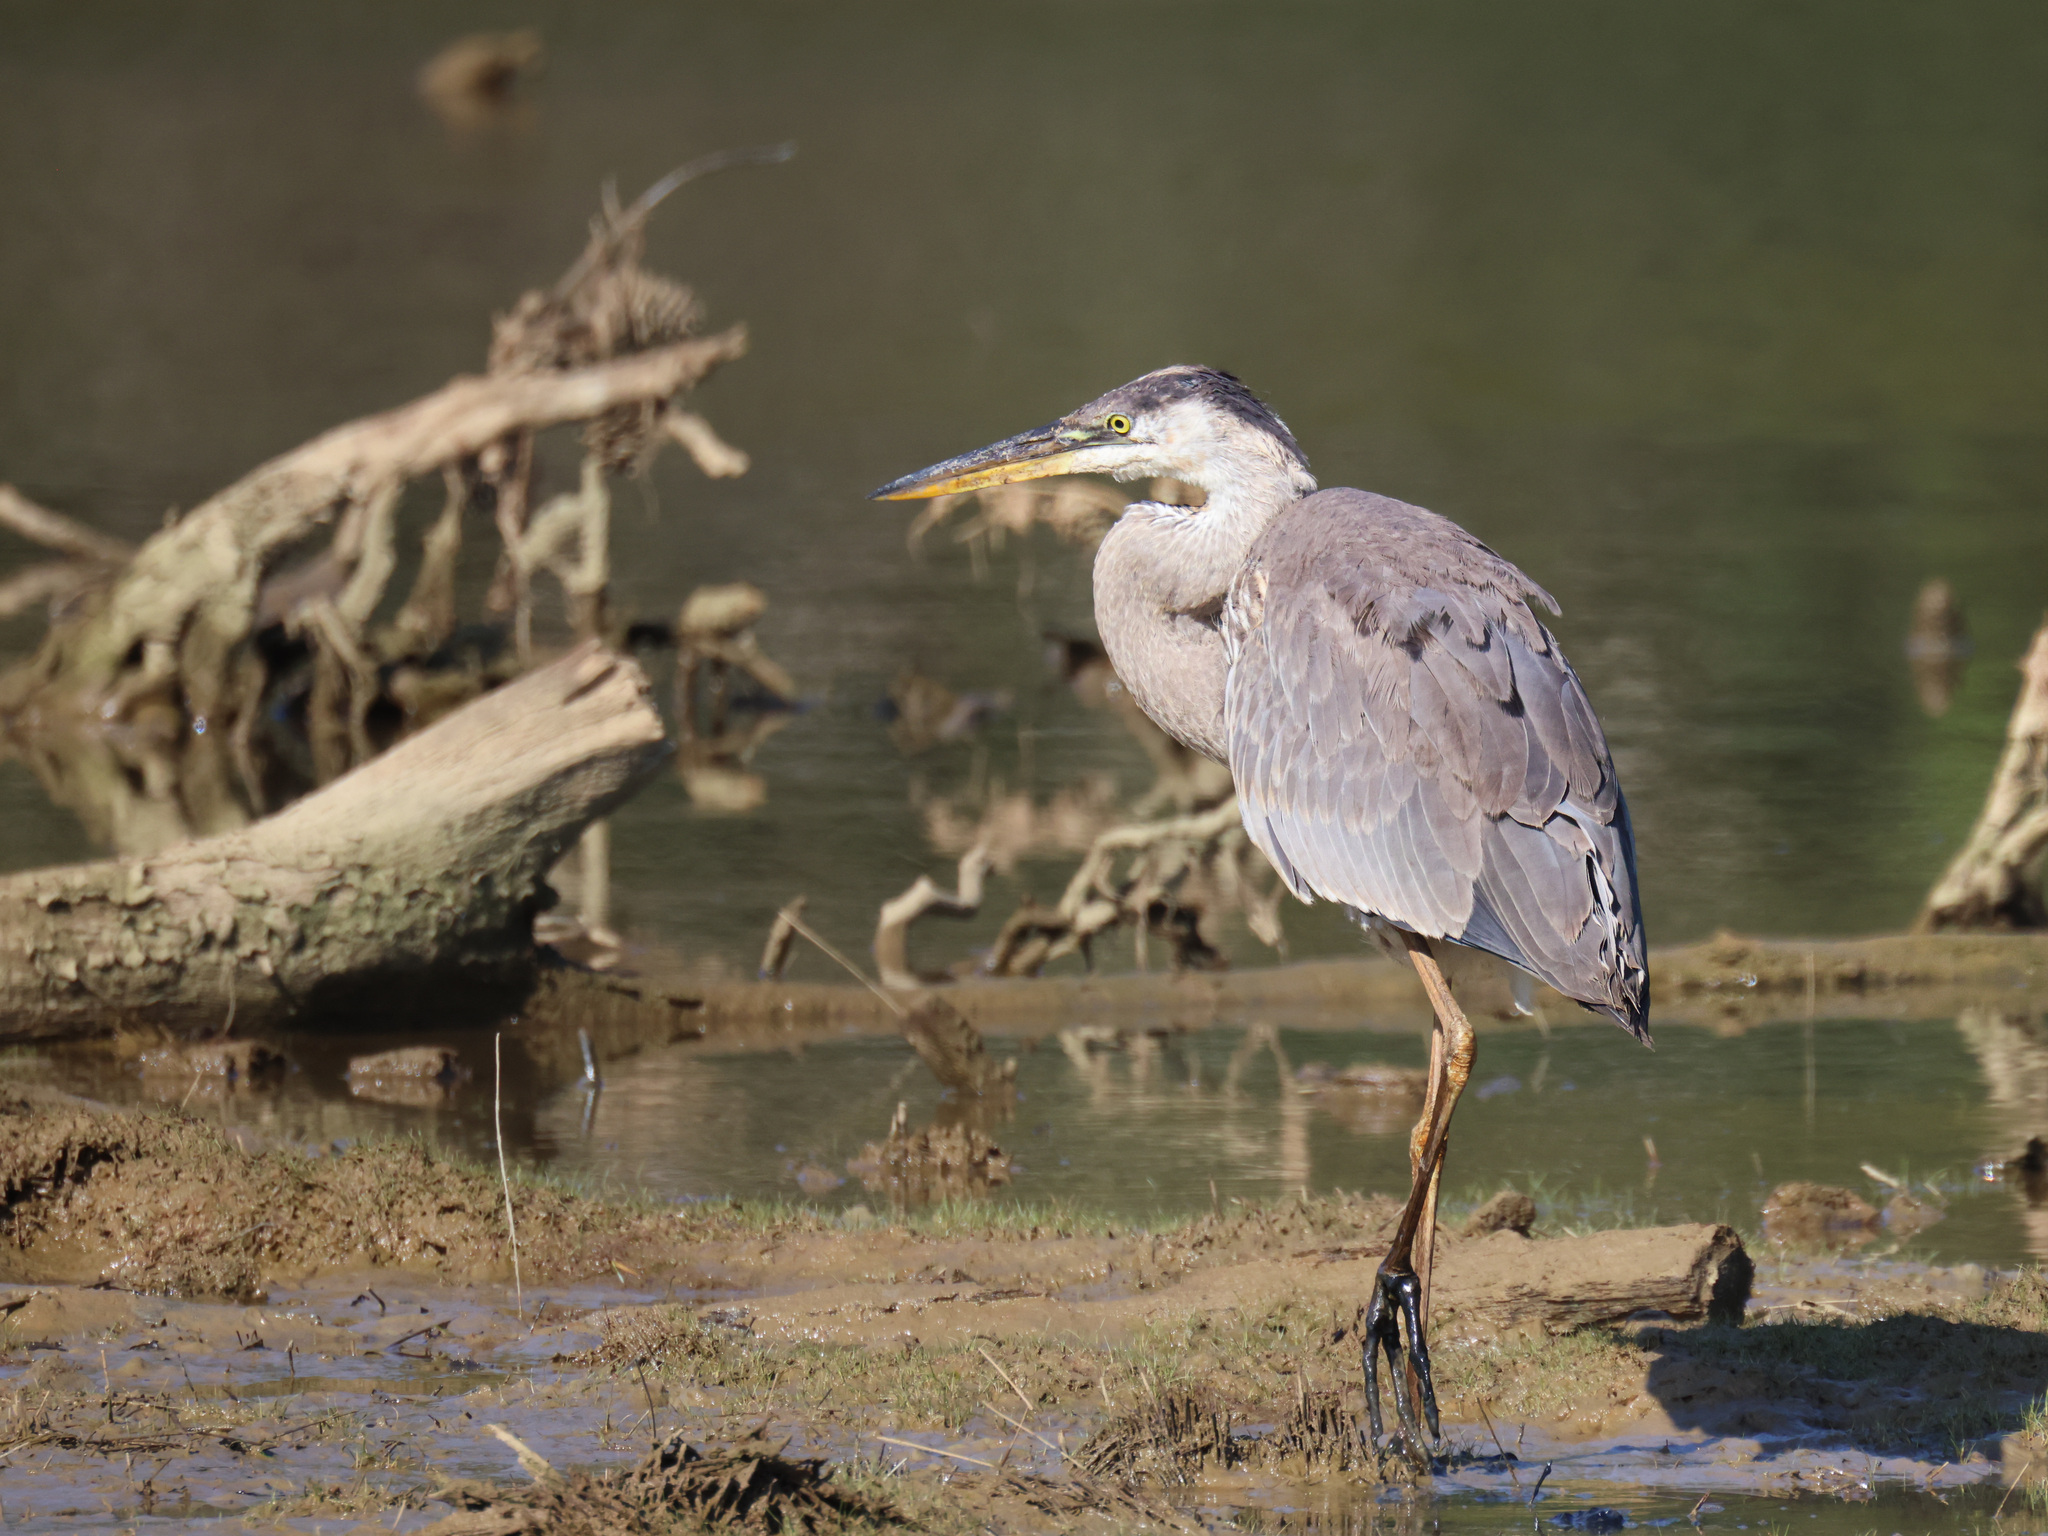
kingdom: Animalia
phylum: Chordata
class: Aves
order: Pelecaniformes
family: Ardeidae
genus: Ardea
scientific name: Ardea herodias
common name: Great blue heron
